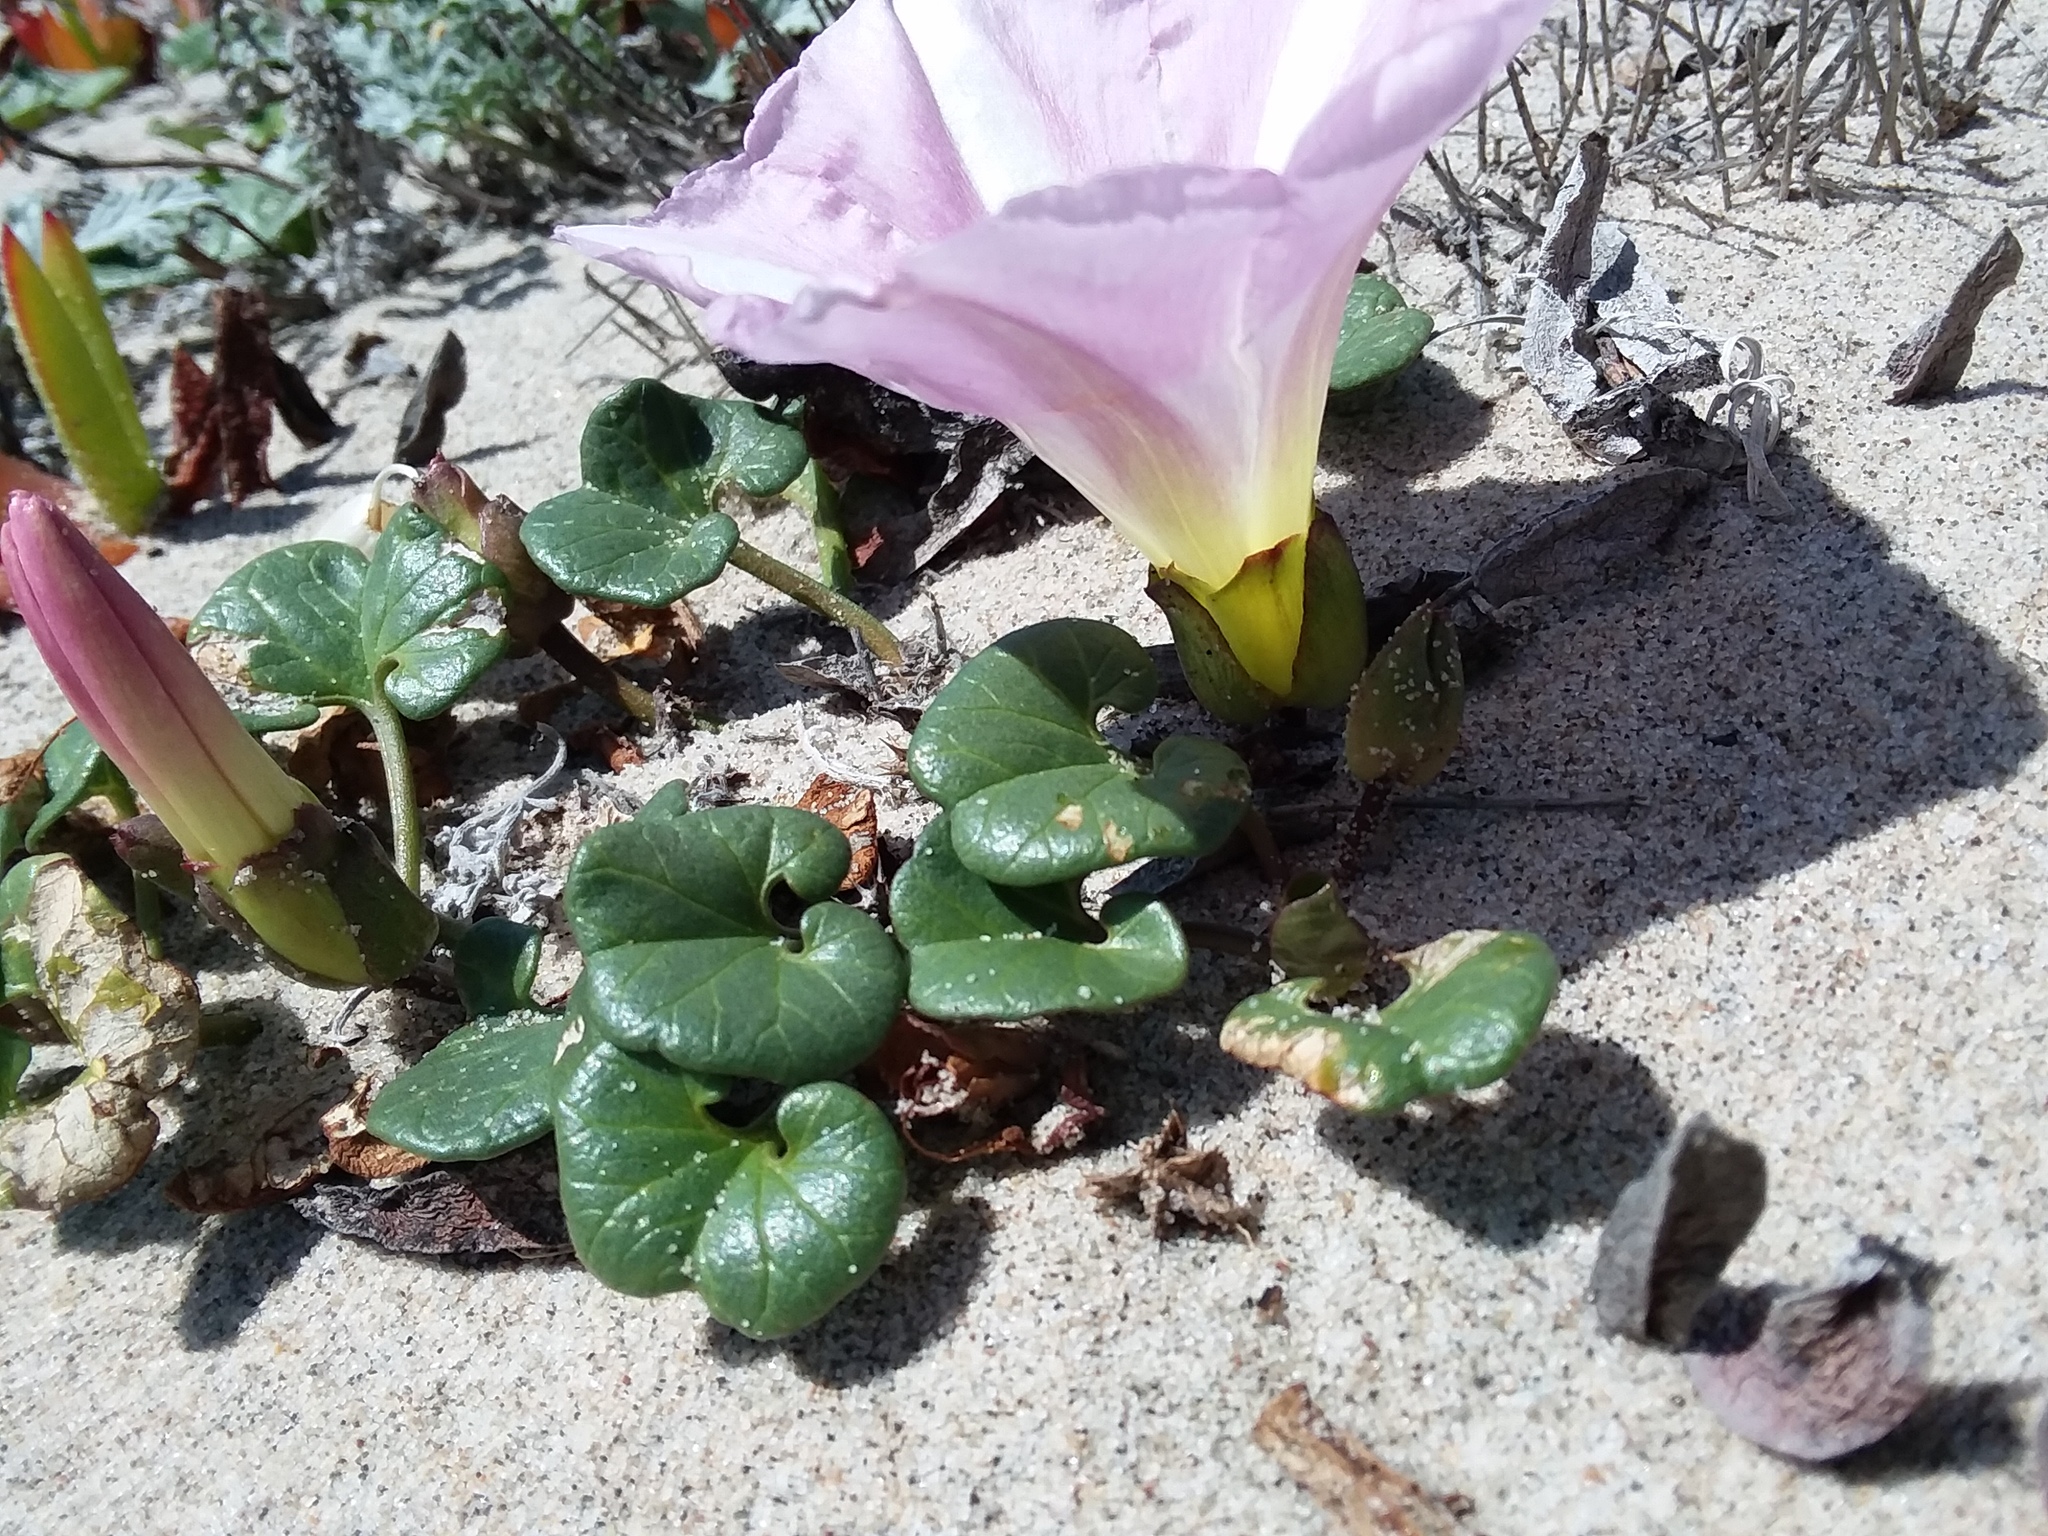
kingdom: Plantae
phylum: Tracheophyta
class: Magnoliopsida
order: Solanales
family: Convolvulaceae
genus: Calystegia
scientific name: Calystegia soldanella
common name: Sea bindweed
